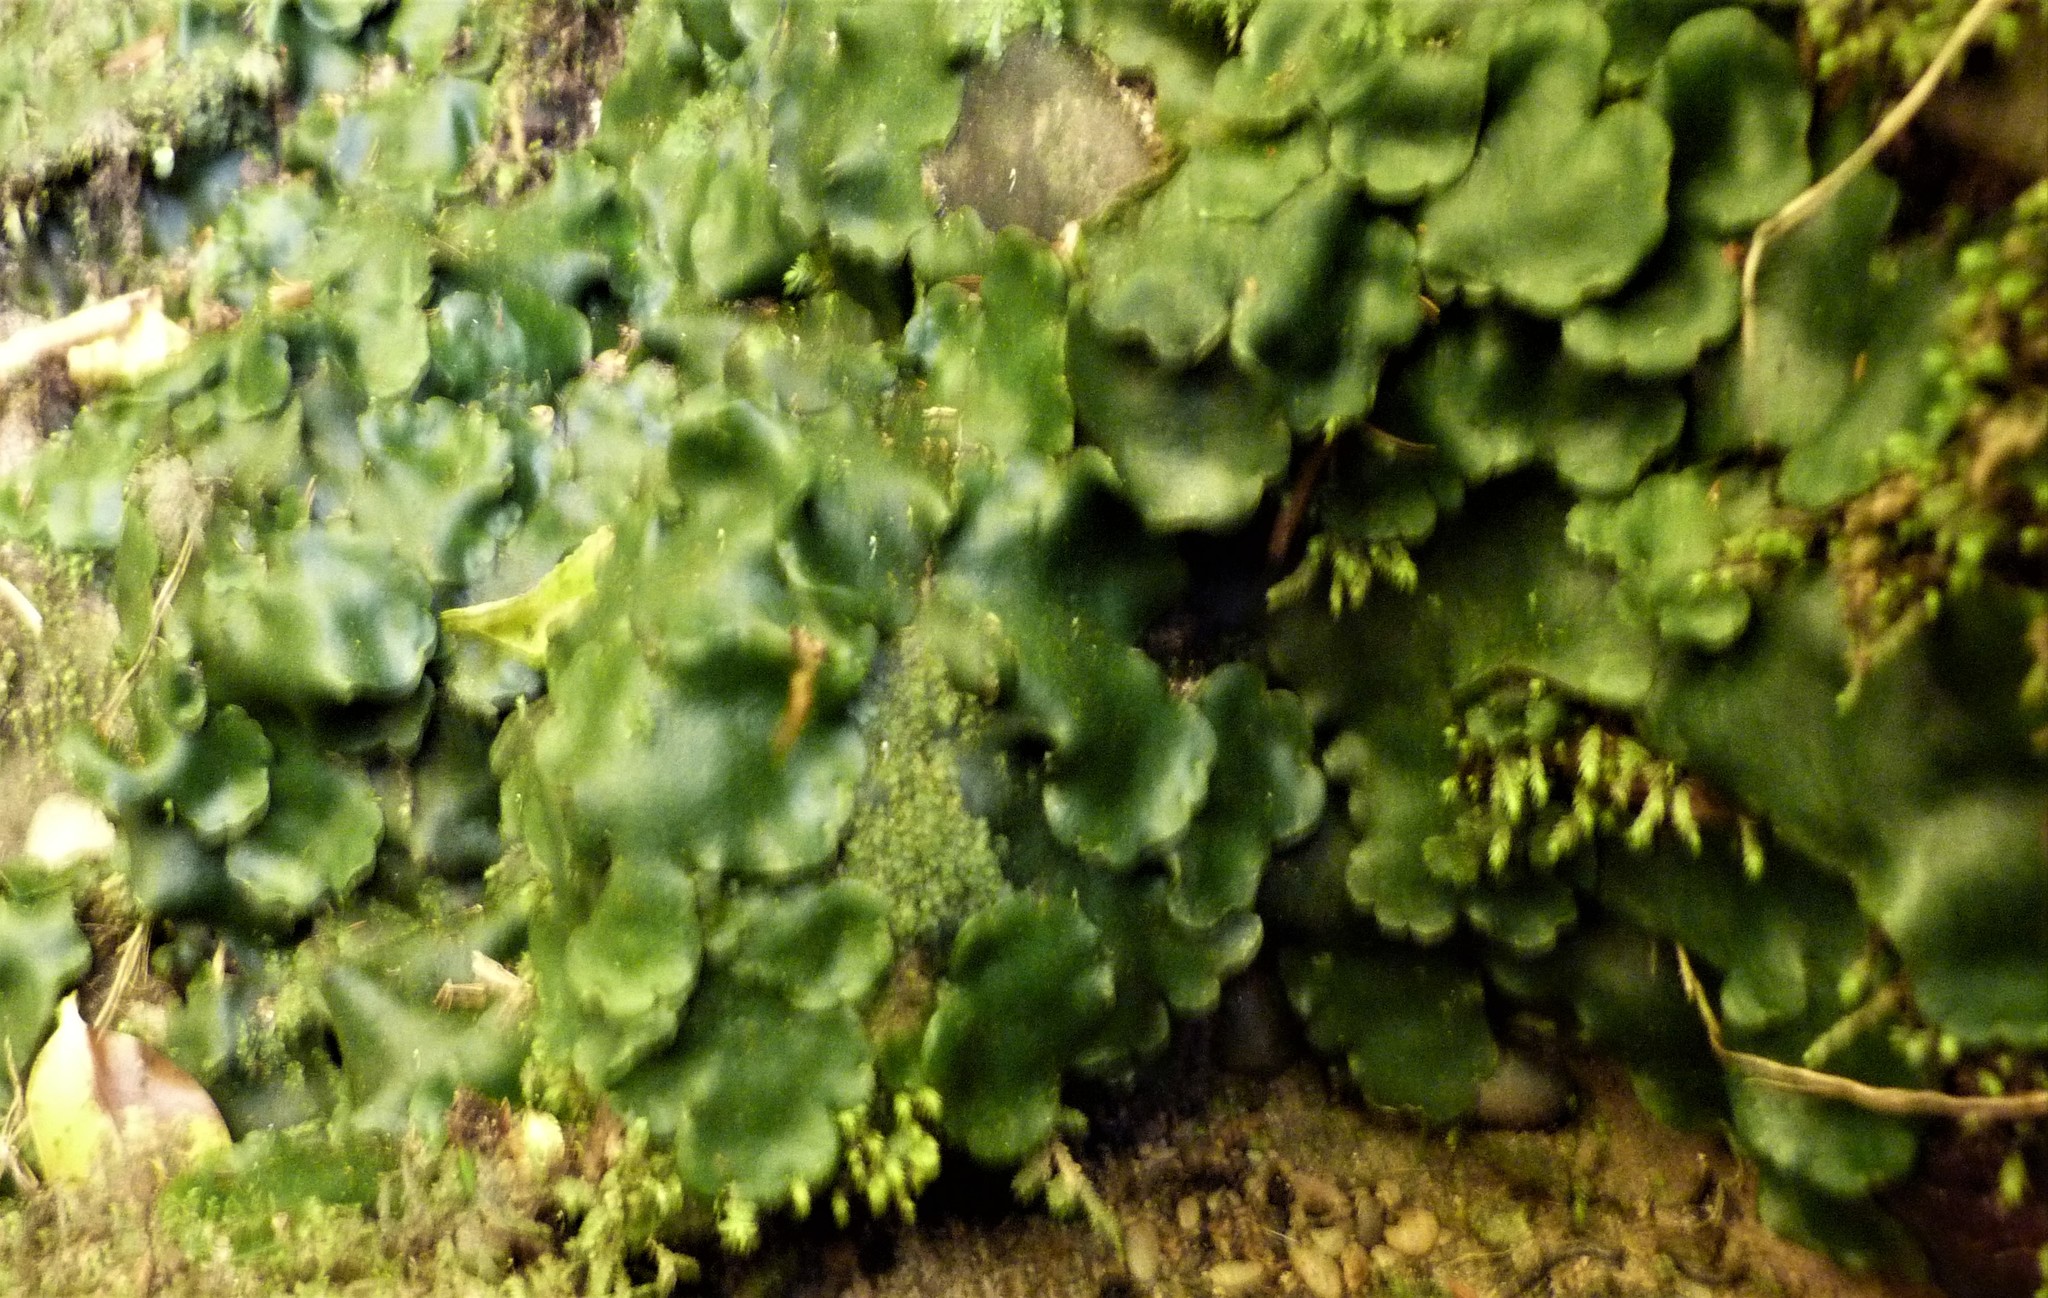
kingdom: Plantae
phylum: Marchantiophyta
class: Marchantiopsida
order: Marchantiales
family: Monocleaceae
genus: Monoclea
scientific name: Monoclea forsteri
